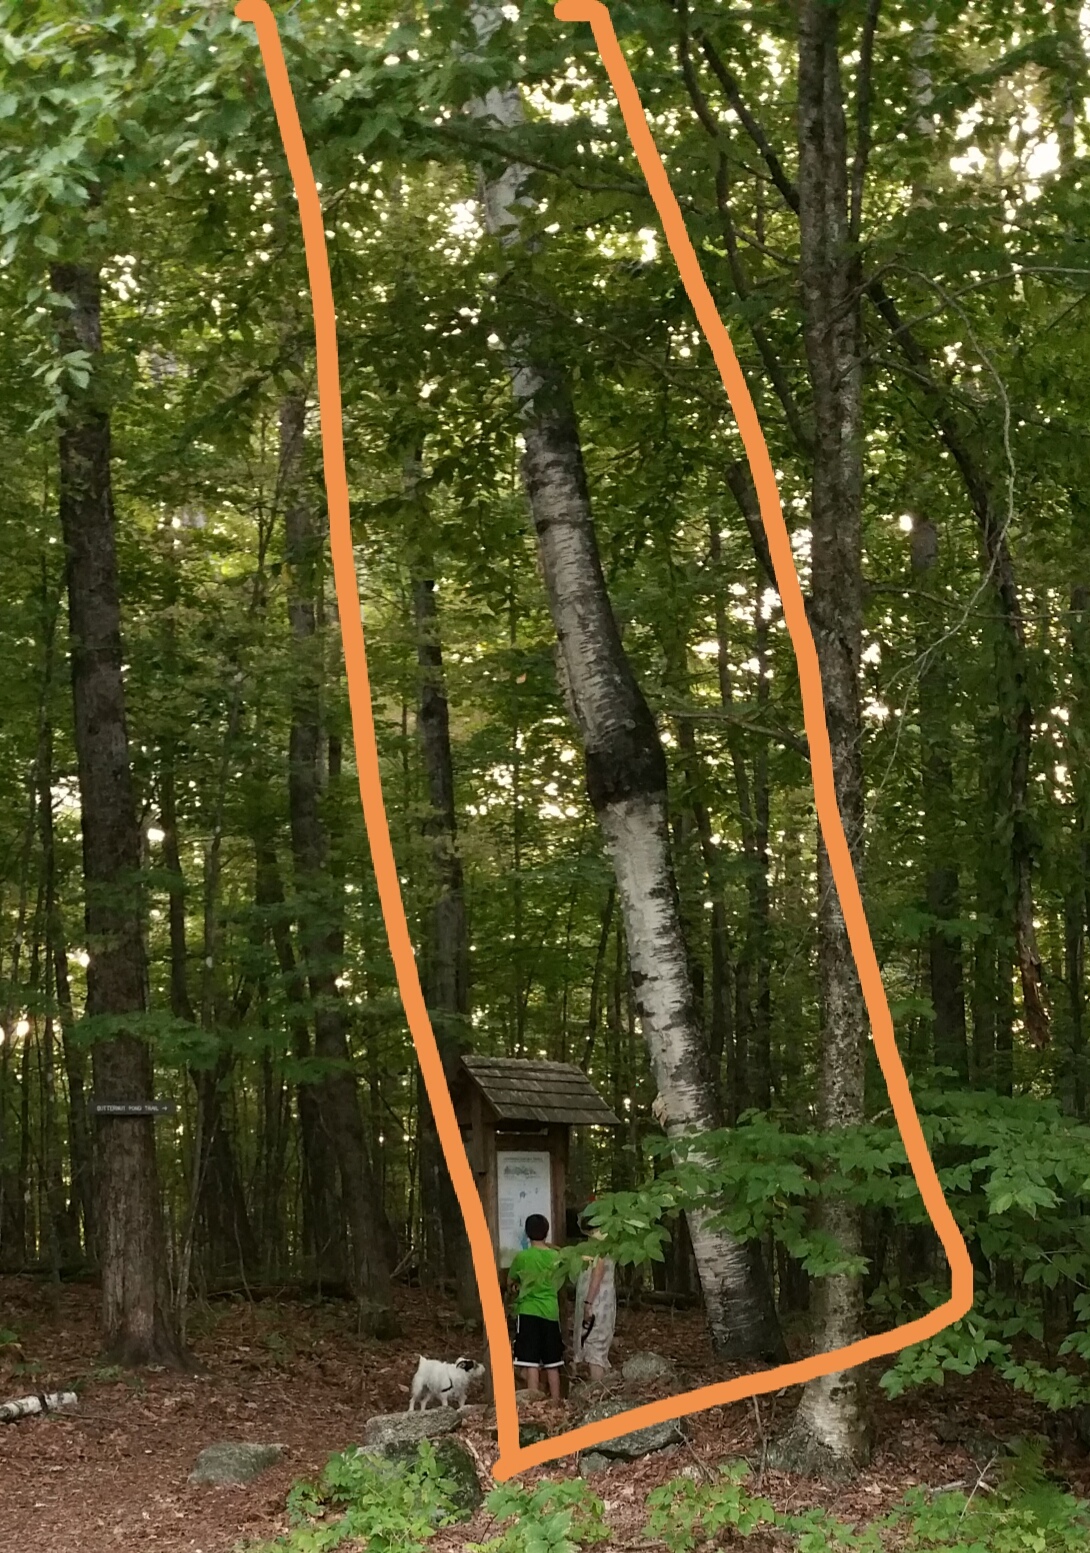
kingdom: Plantae
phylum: Tracheophyta
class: Magnoliopsida
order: Fagales
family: Betulaceae
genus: Betula
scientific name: Betula papyrifera
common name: Paper birch
